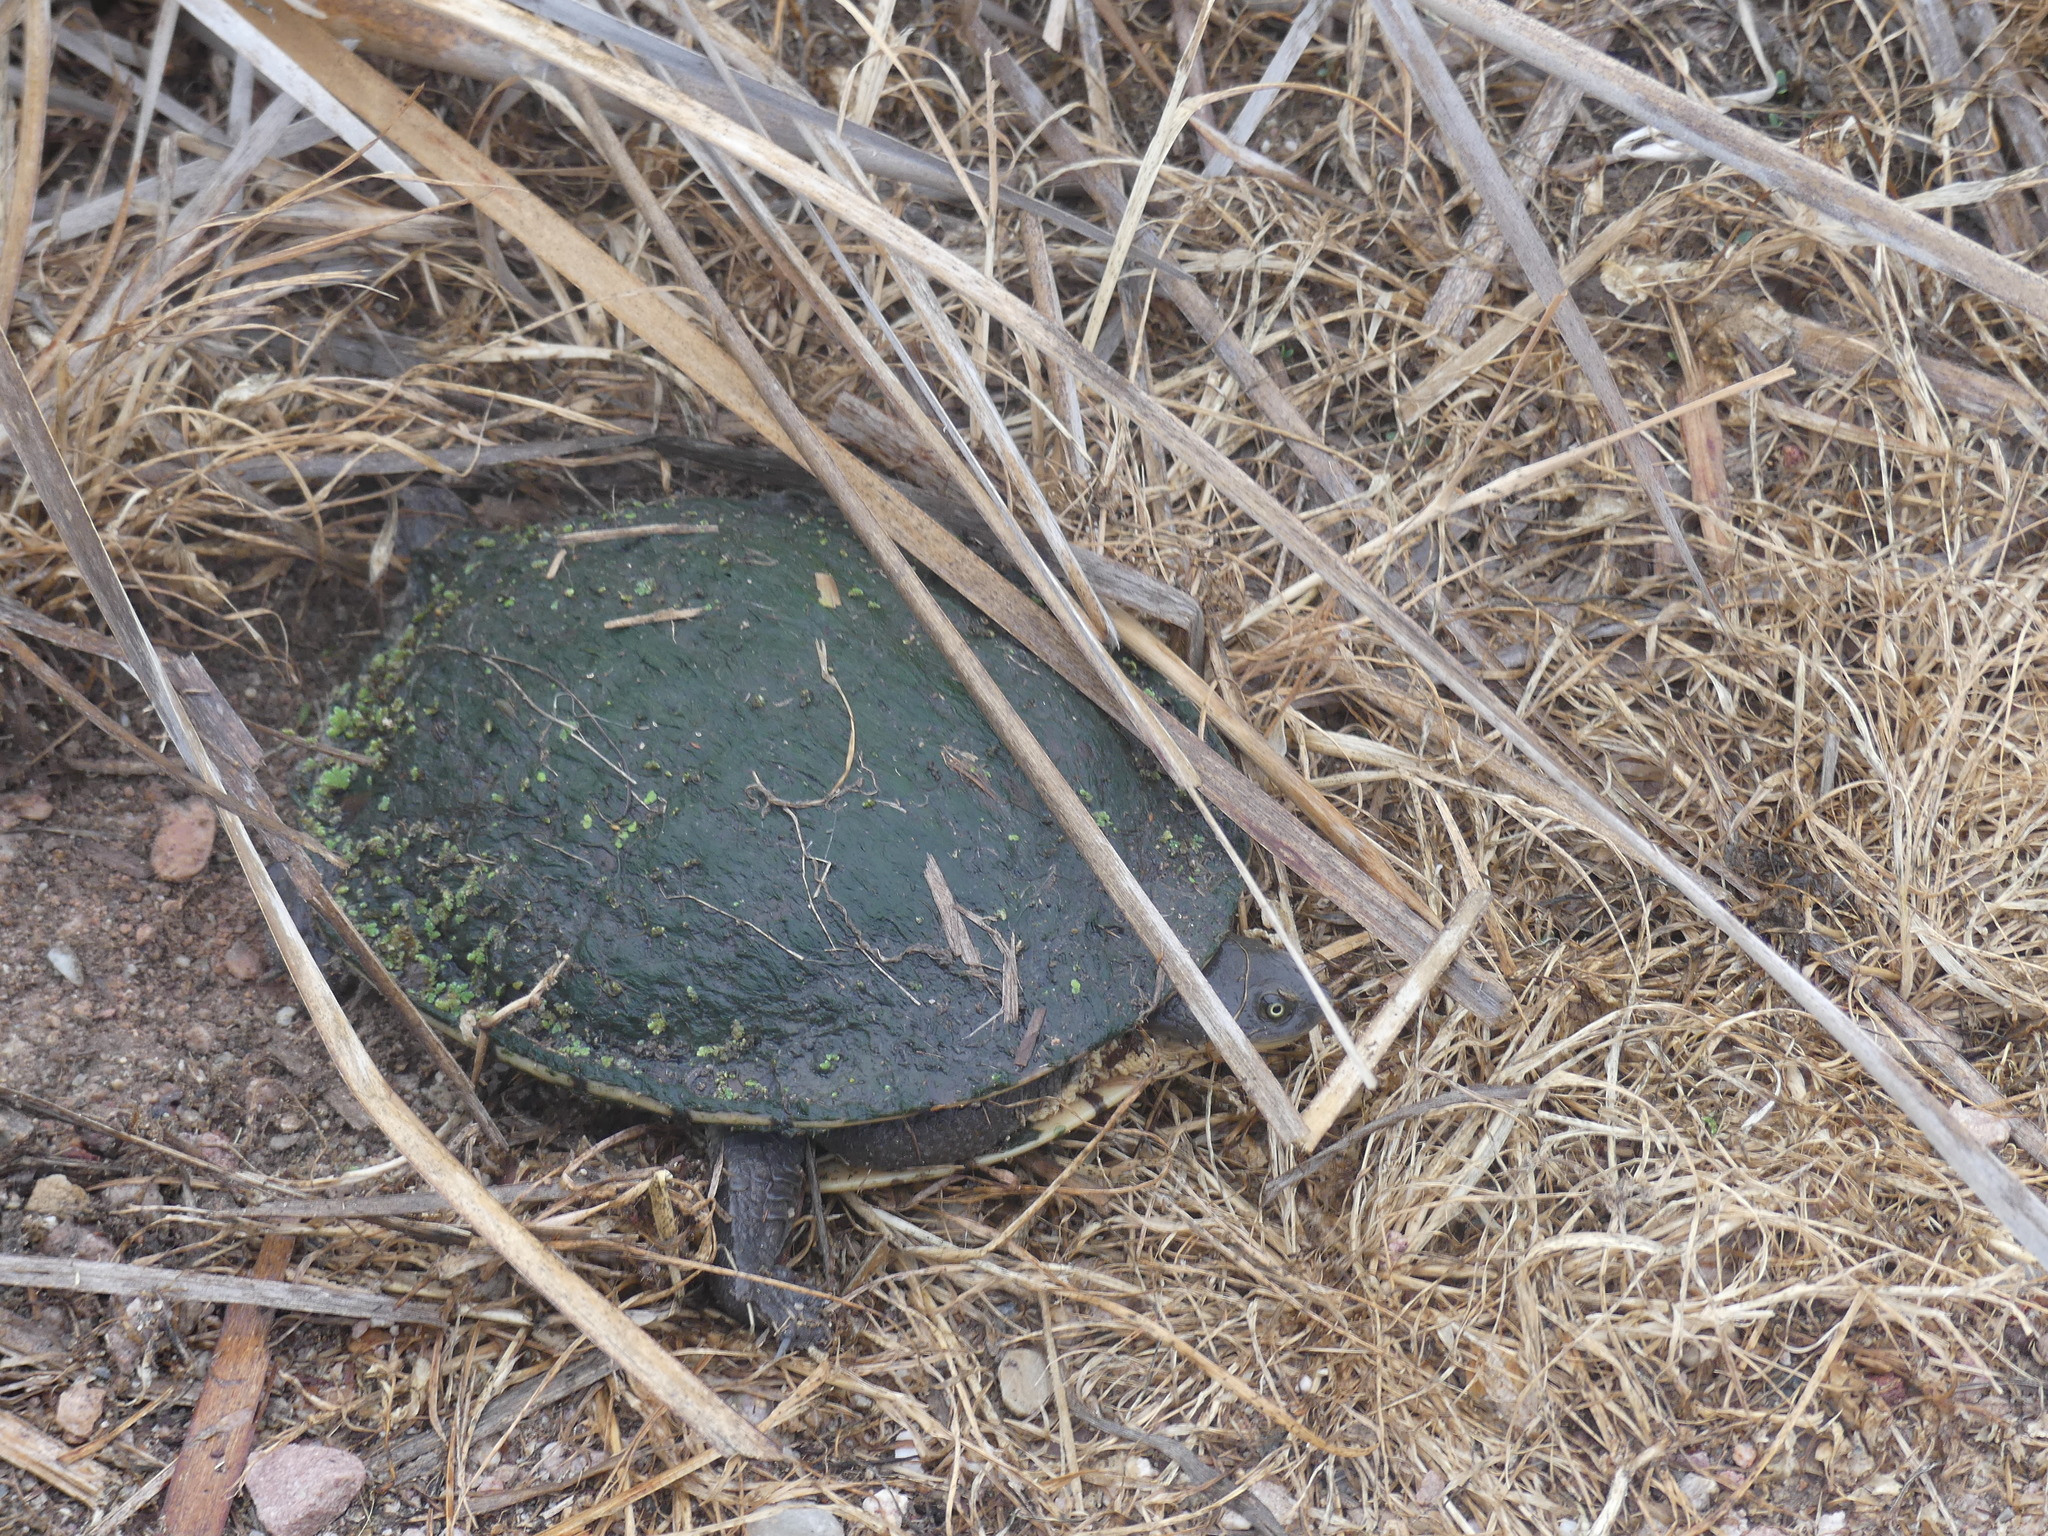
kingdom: Animalia
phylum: Chordata
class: Testudines
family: Chelidae
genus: Chelodina
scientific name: Chelodina longicollis
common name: Eastern snake-necked turtle
